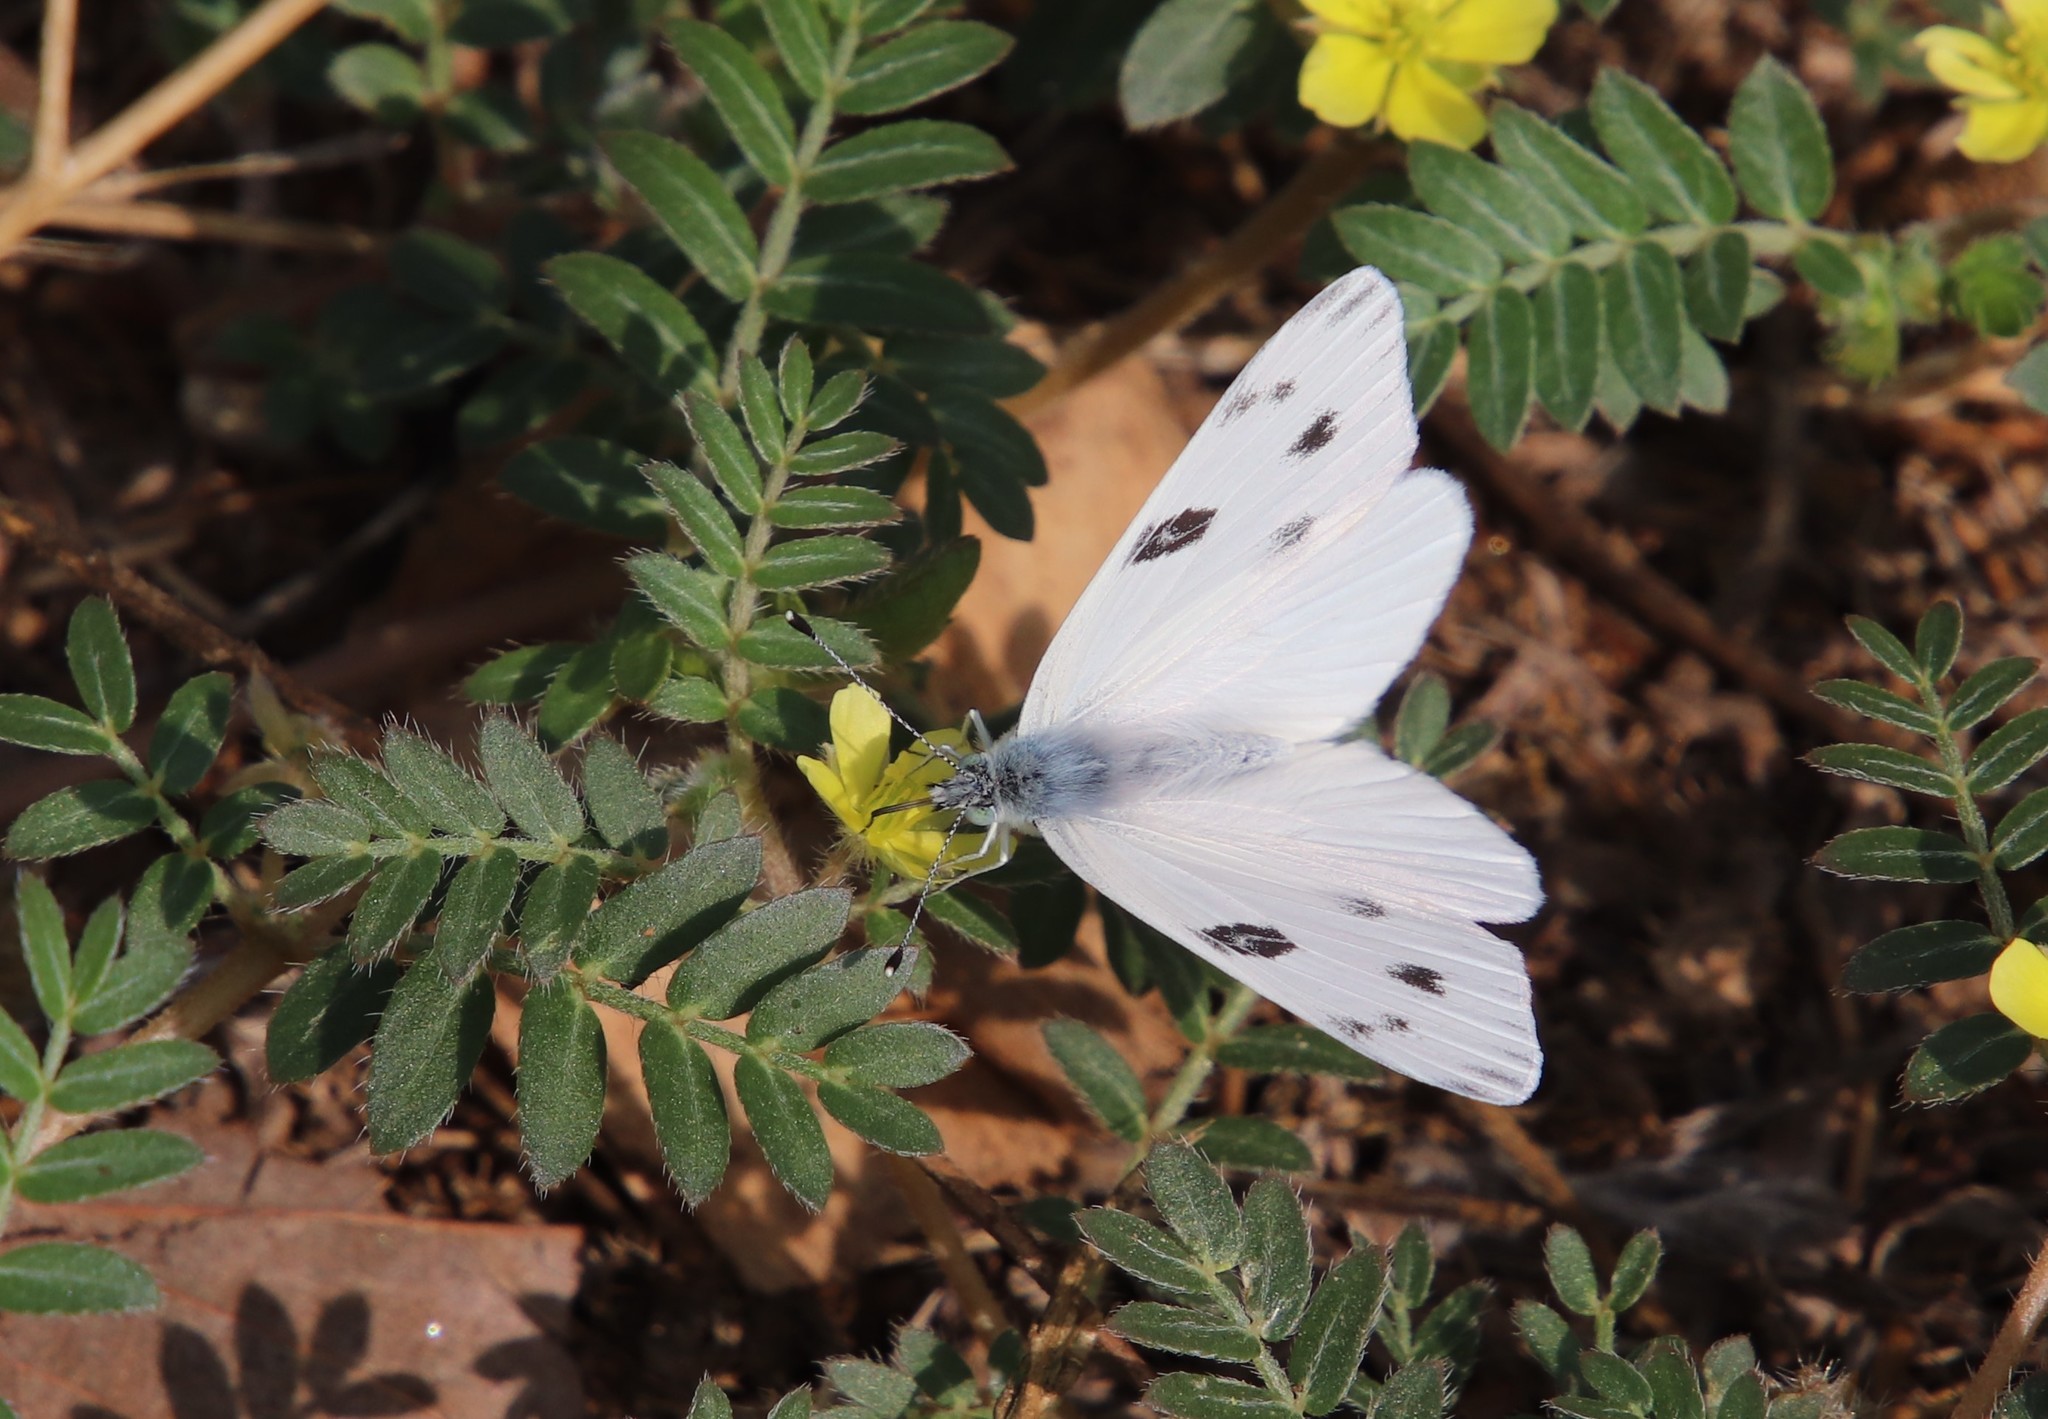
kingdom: Animalia
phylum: Arthropoda
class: Insecta
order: Lepidoptera
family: Pieridae
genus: Pontia
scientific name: Pontia protodice
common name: Checkered white
